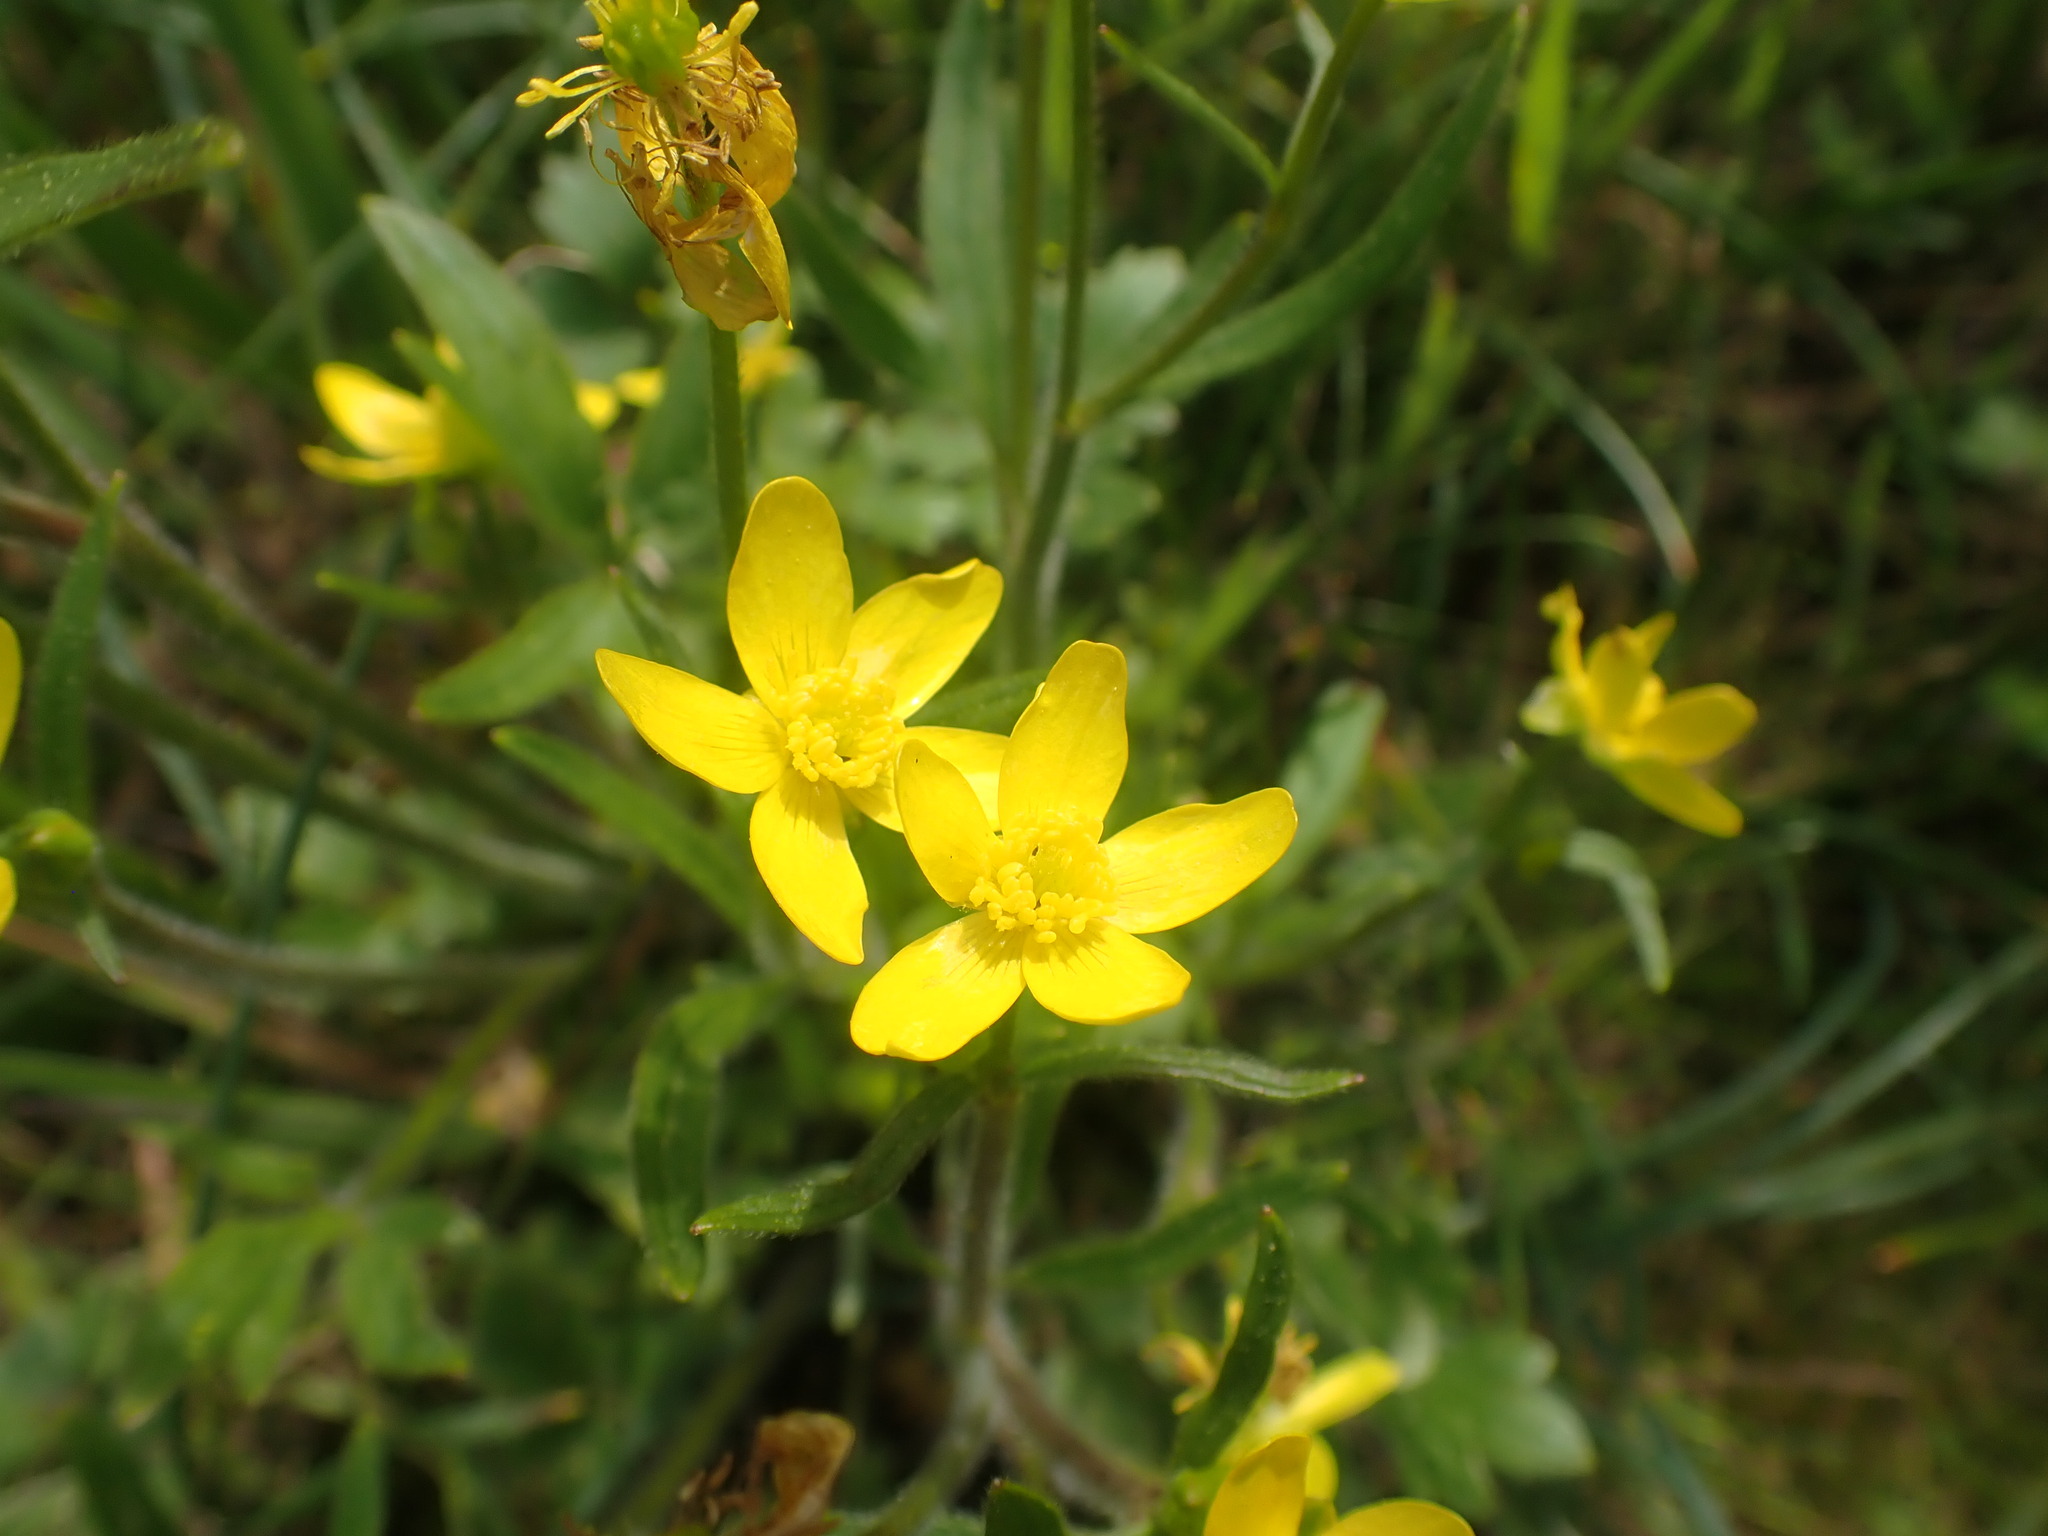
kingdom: Plantae
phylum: Tracheophyta
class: Magnoliopsida
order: Ranunculales
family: Ranunculaceae
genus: Ranunculus
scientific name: Ranunculus occidentalis
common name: Western buttercup
